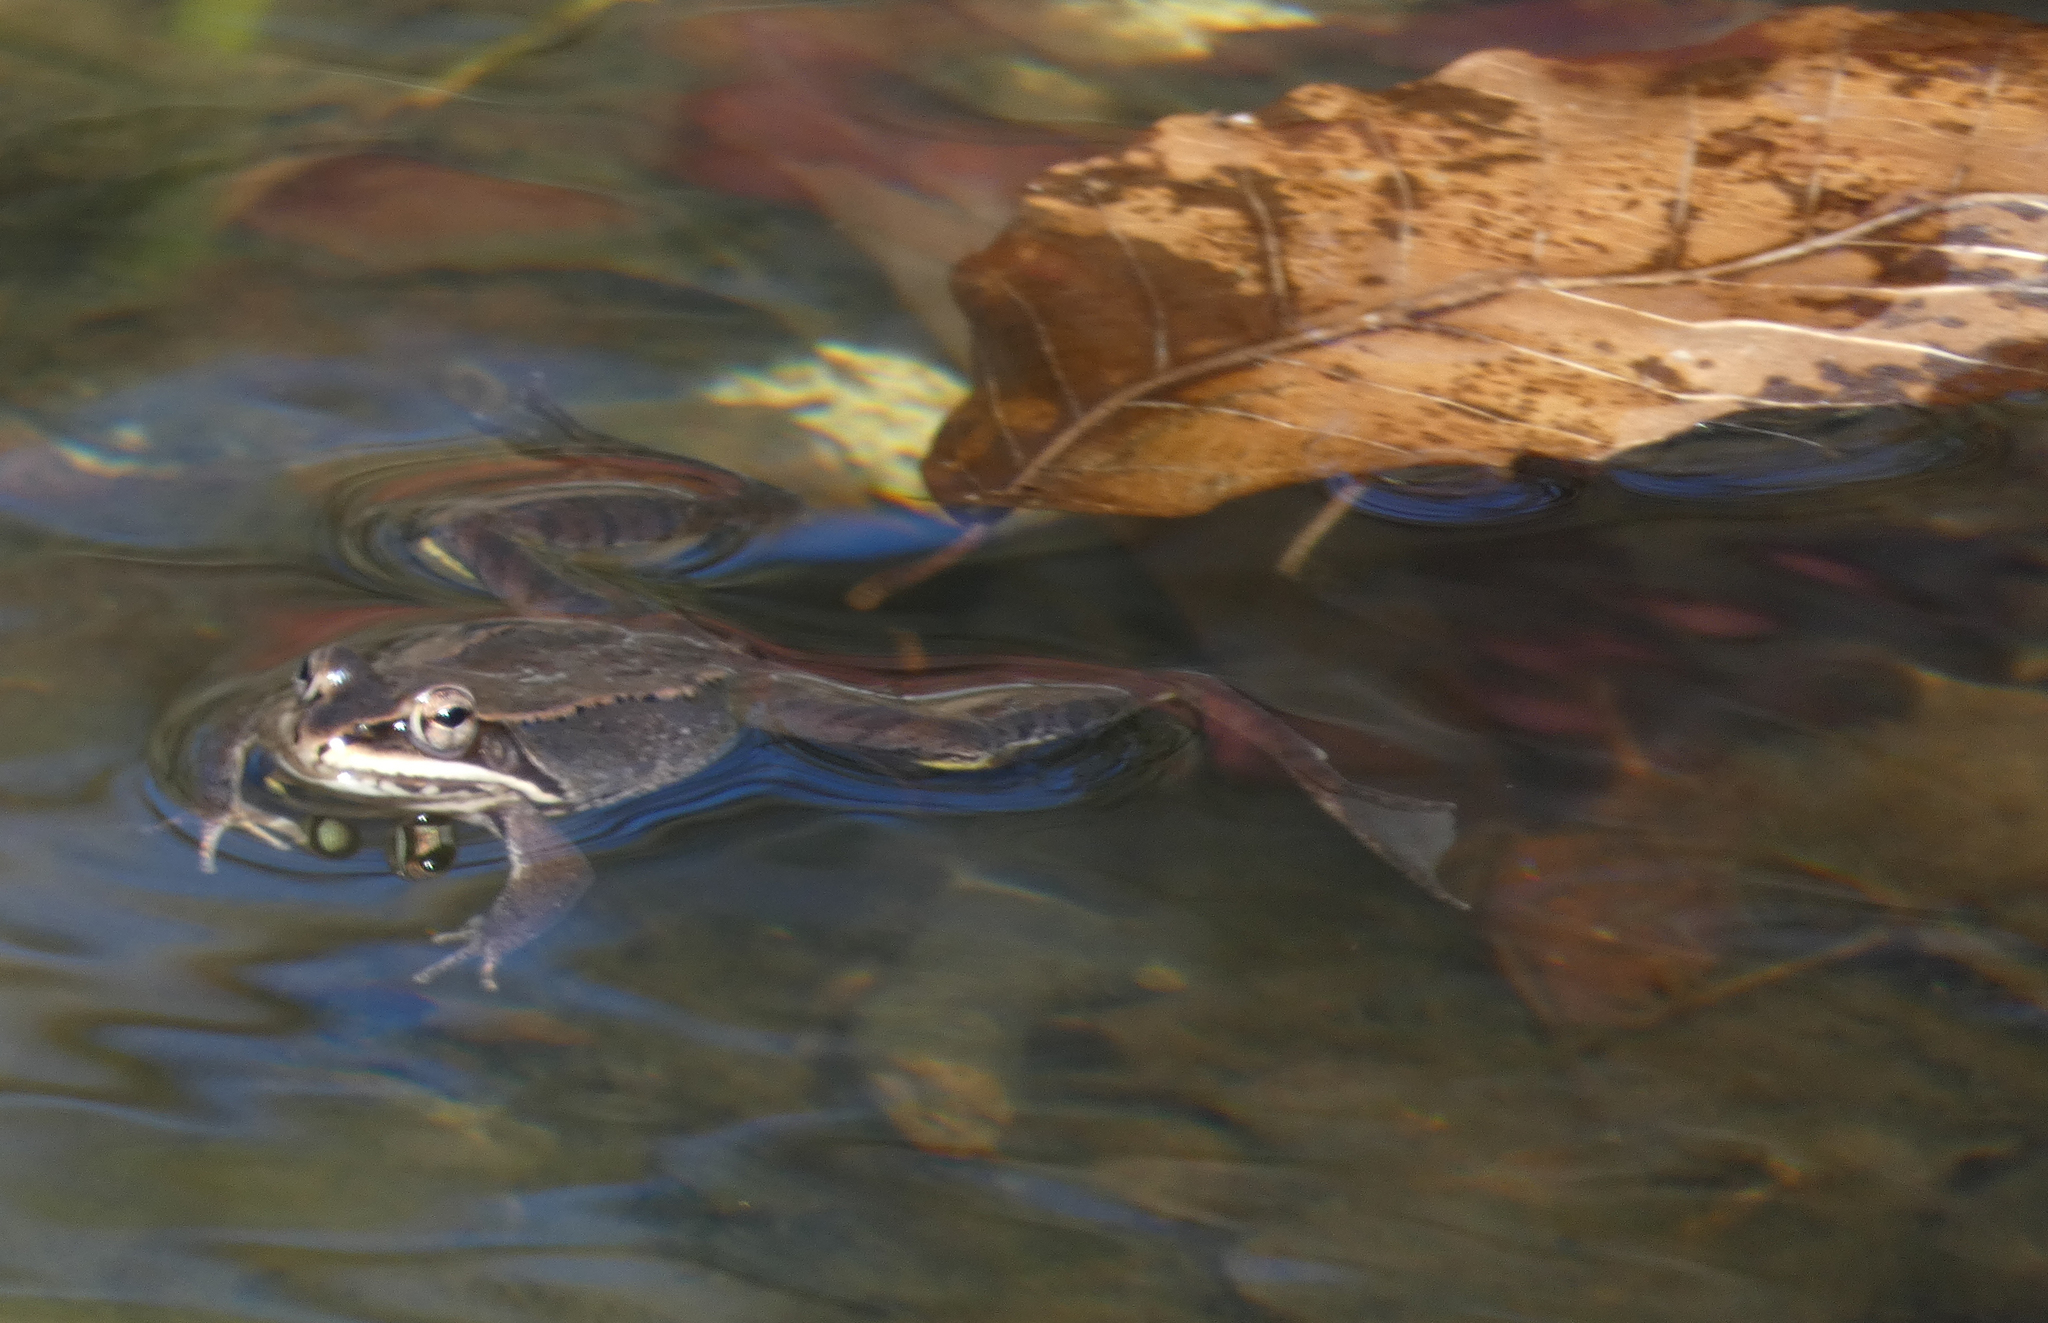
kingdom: Animalia
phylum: Chordata
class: Amphibia
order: Anura
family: Ranidae
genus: Lithobates
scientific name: Lithobates sylvaticus
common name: Wood frog
